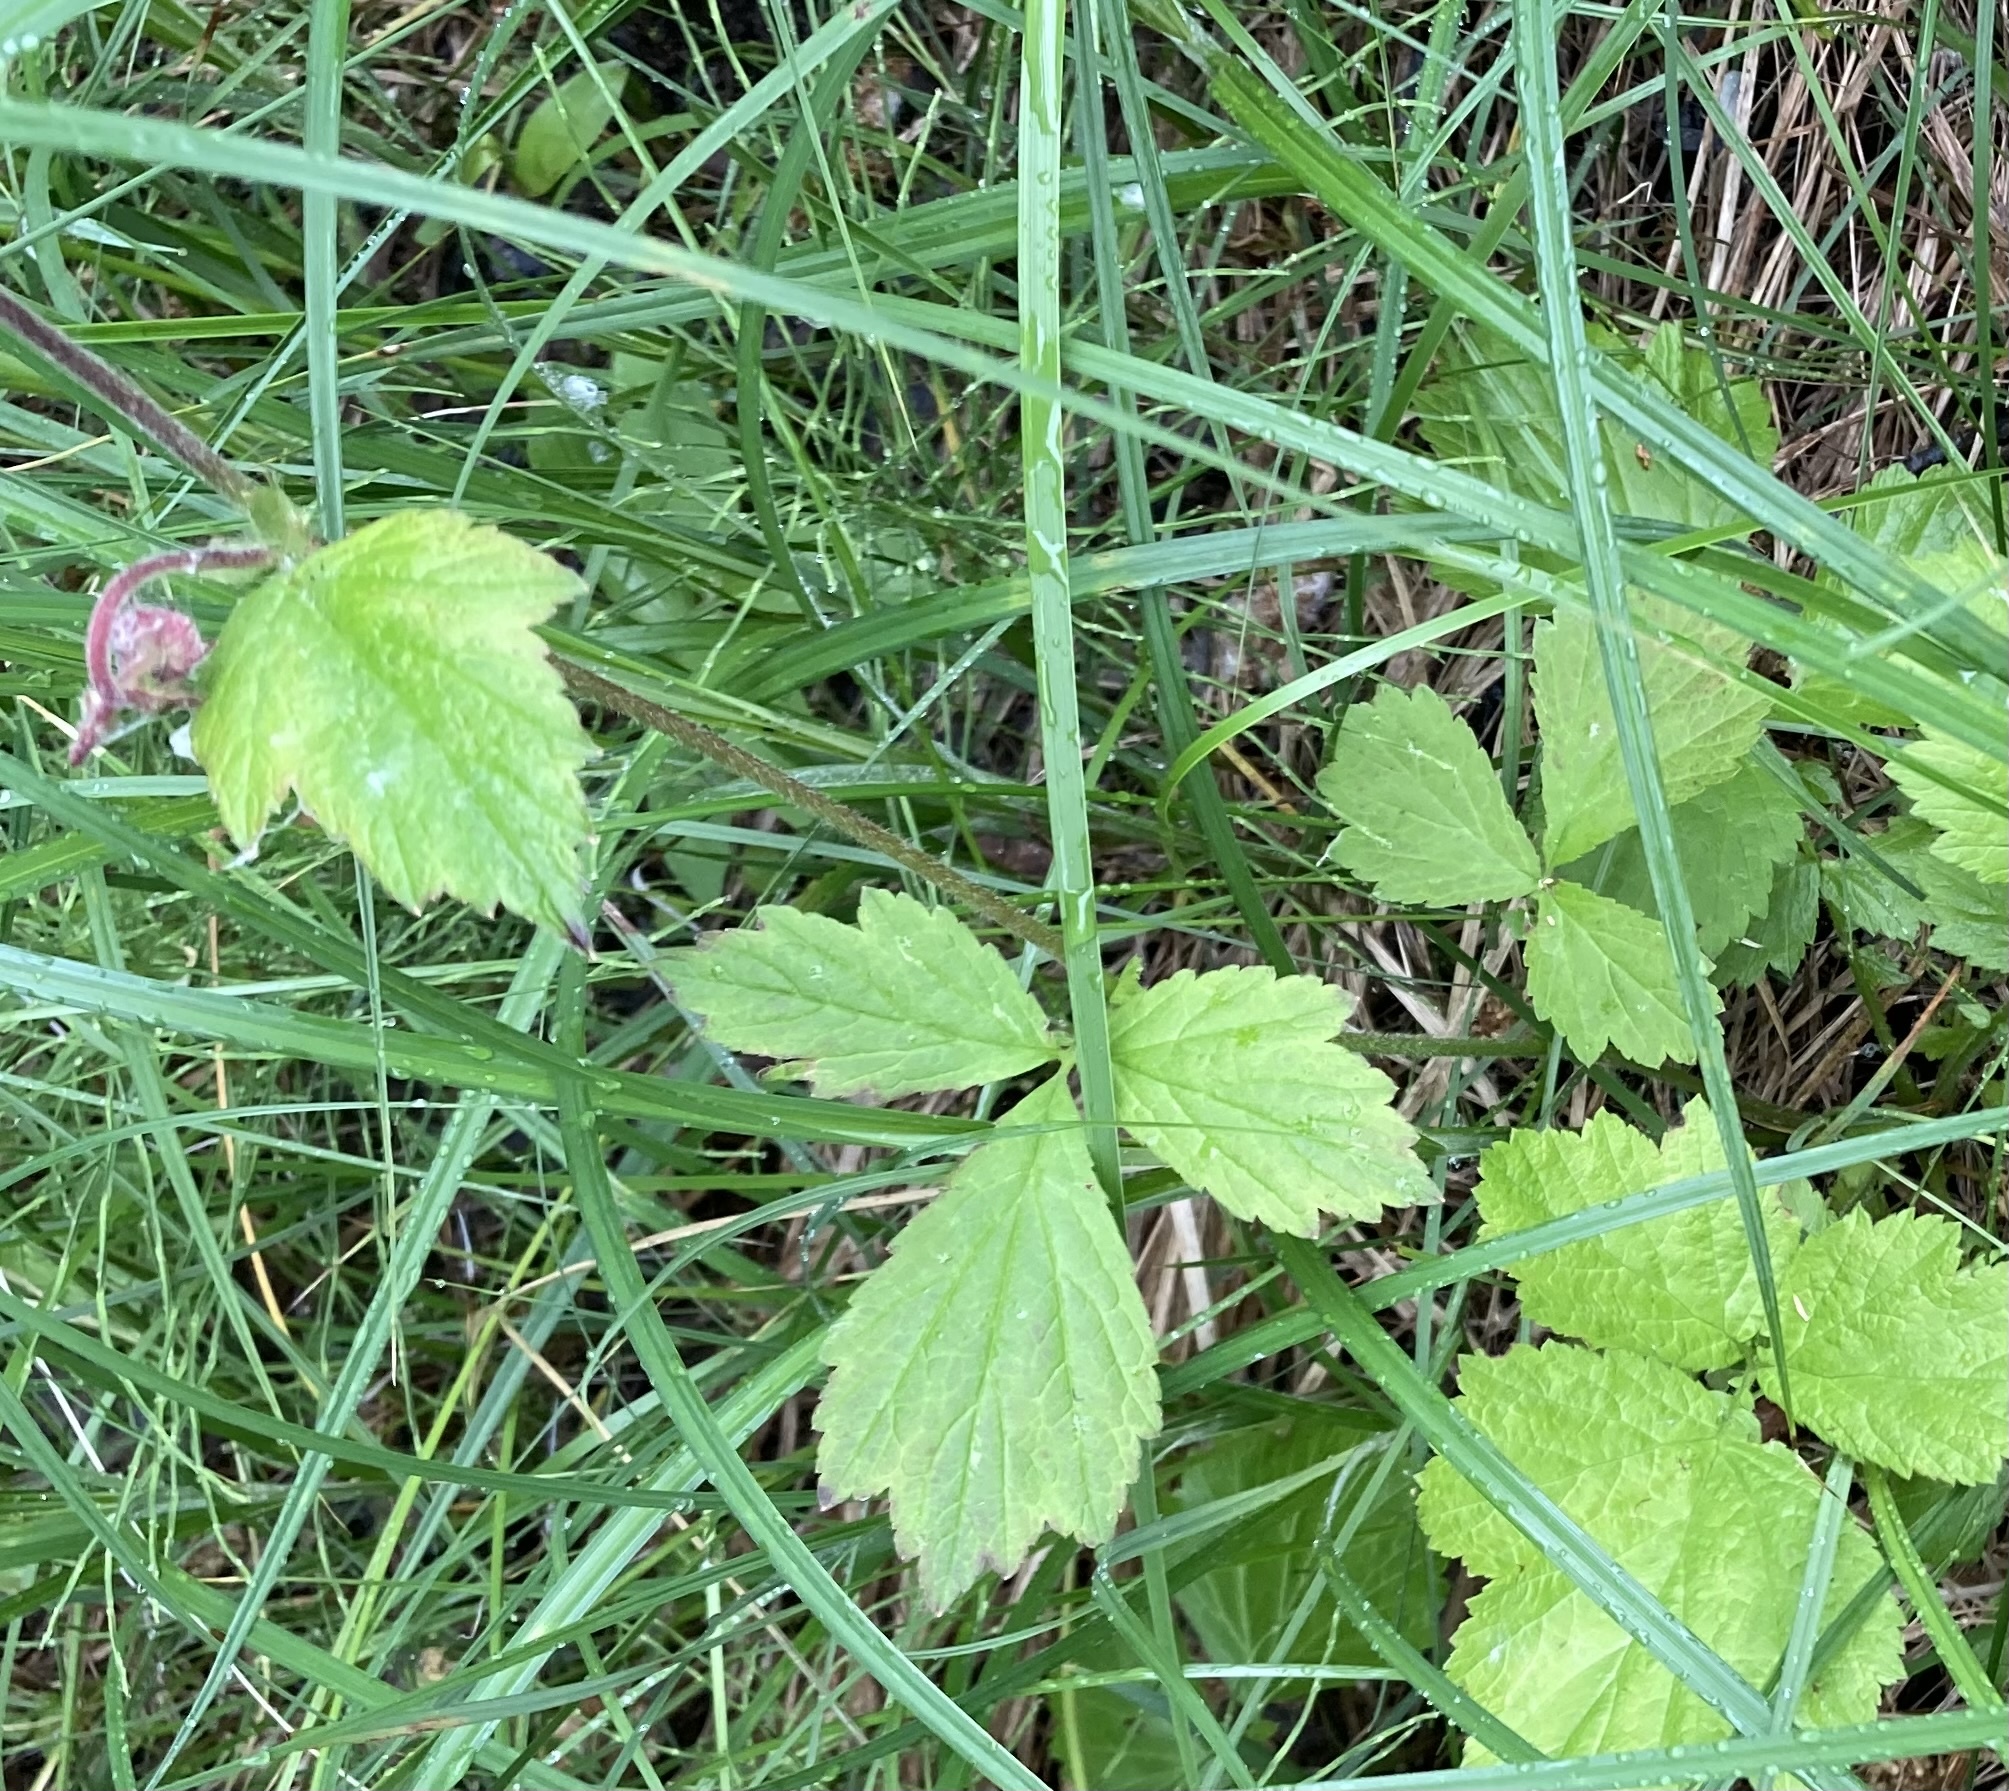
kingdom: Plantae
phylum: Tracheophyta
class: Magnoliopsida
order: Rosales
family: Rosaceae
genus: Geum
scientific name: Geum rivale
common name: Water avens
